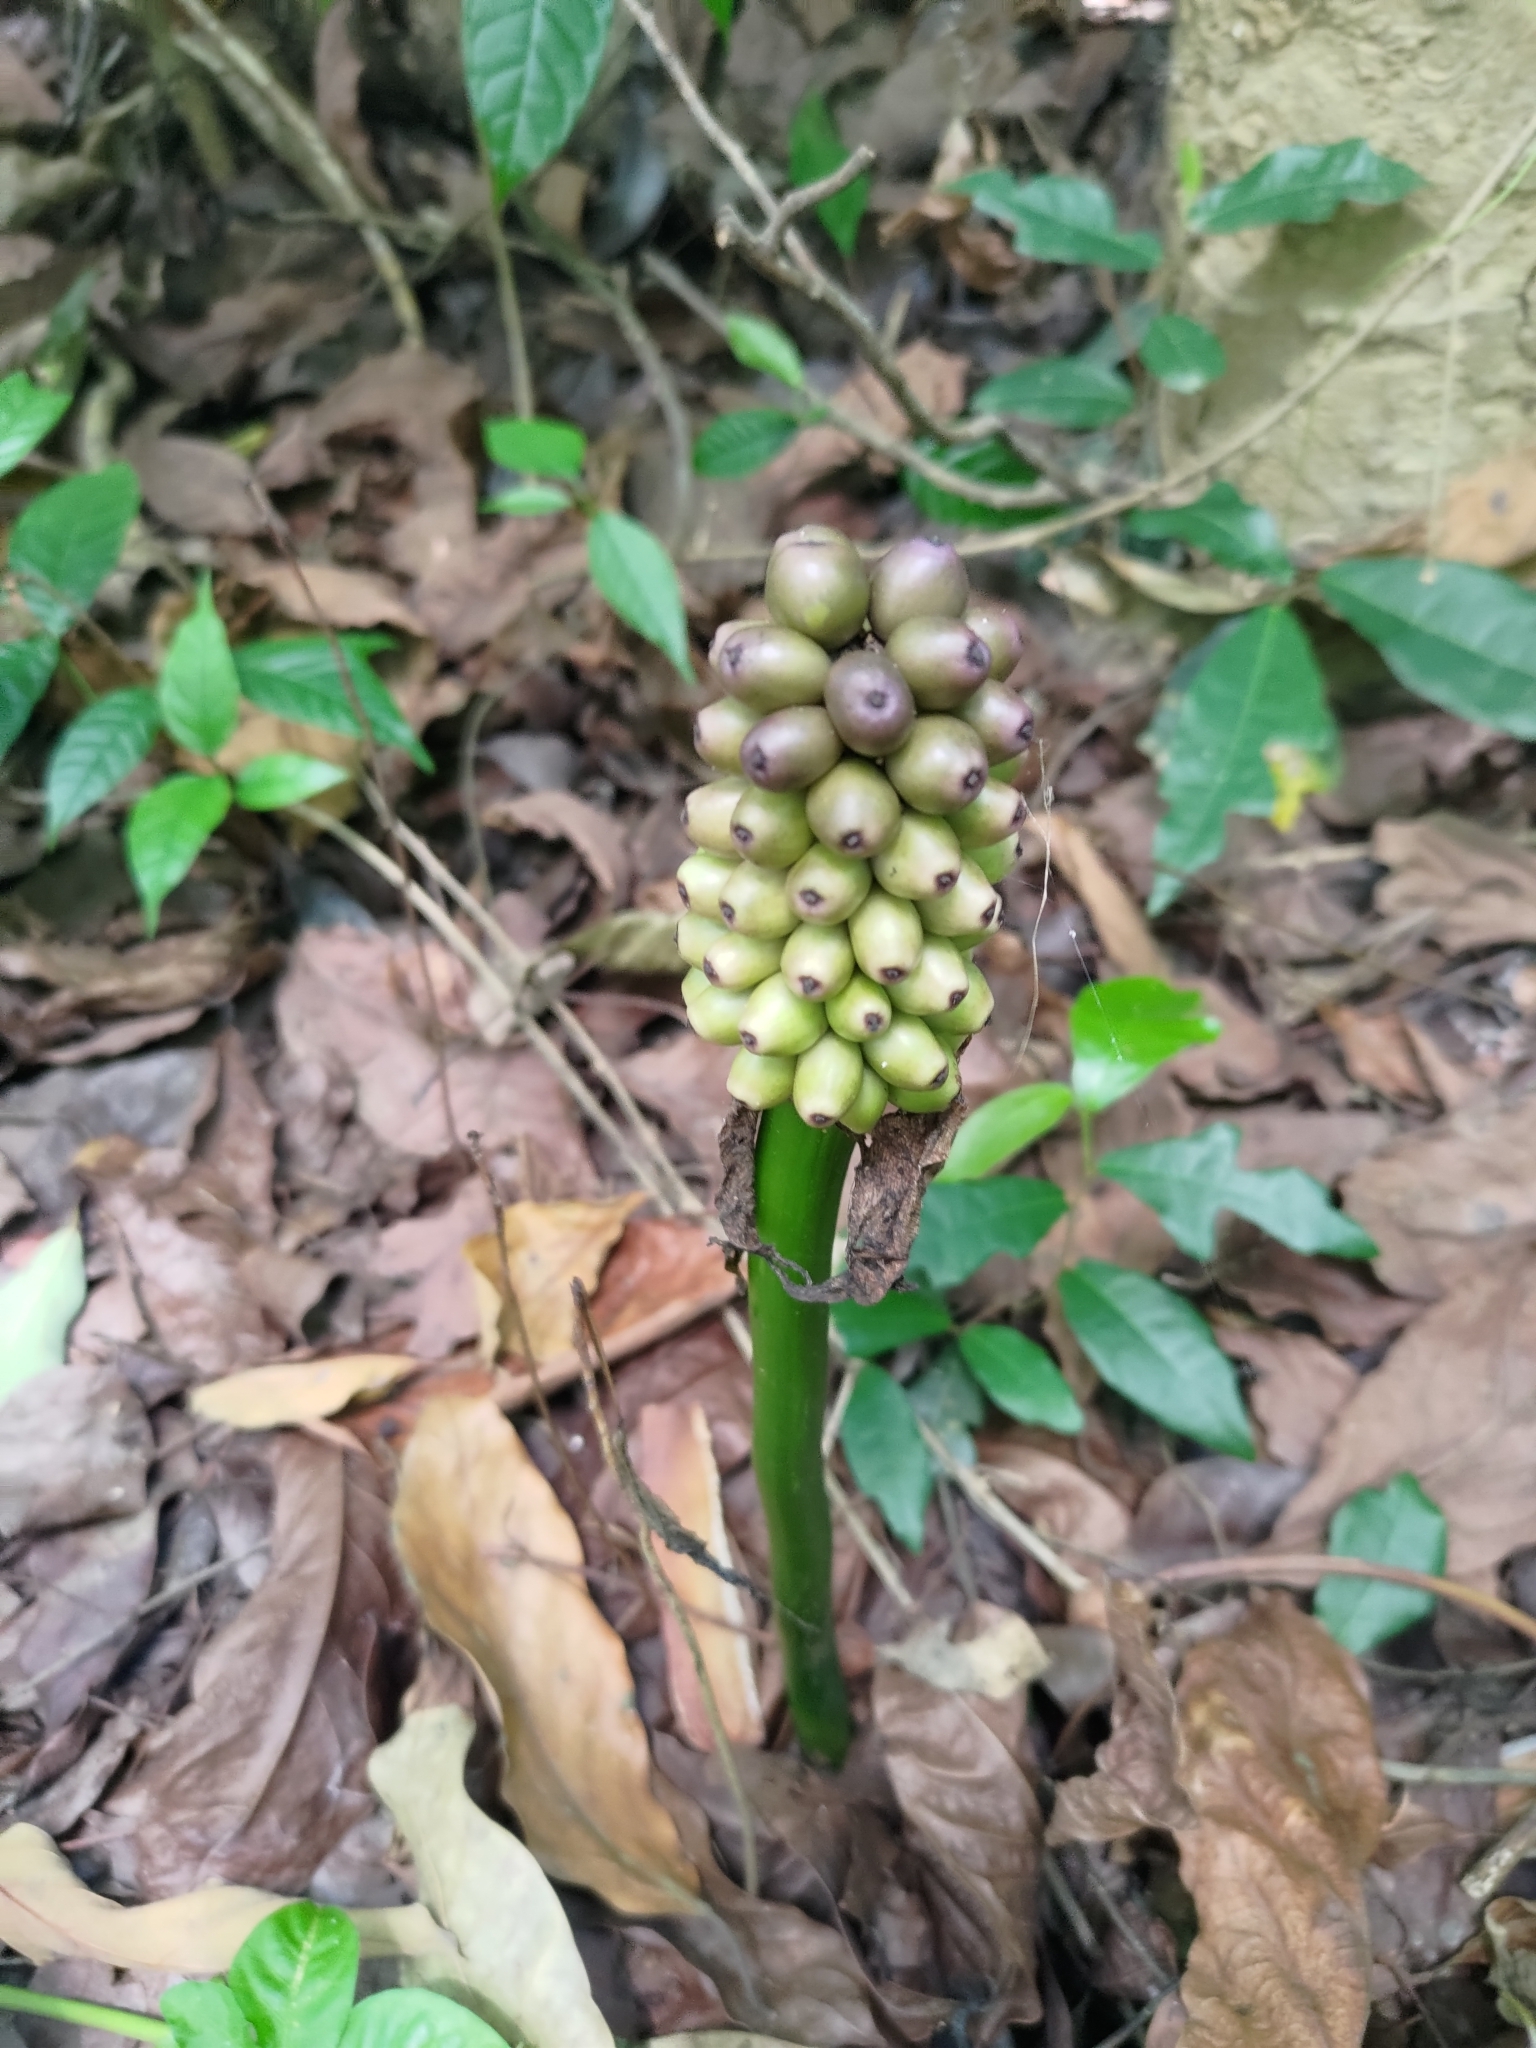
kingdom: Plantae
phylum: Tracheophyta
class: Liliopsida
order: Alismatales
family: Araceae
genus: Amorphophallus
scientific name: Amorphophallus henryi
